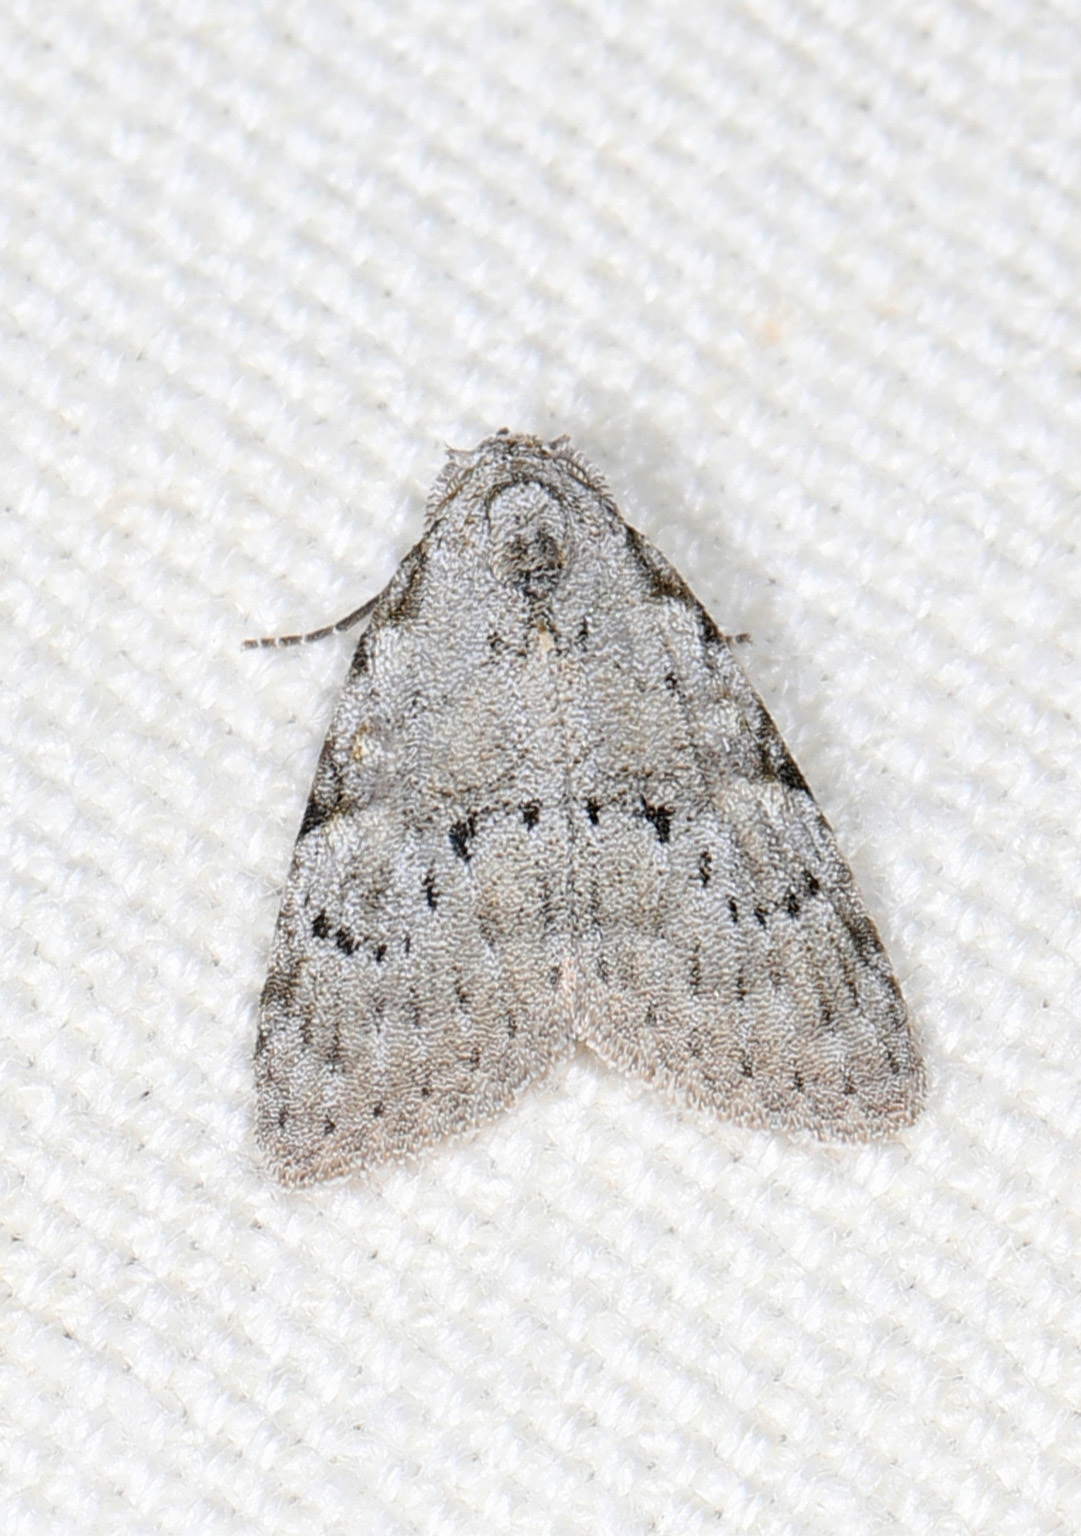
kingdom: Animalia
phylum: Arthropoda
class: Insecta
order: Lepidoptera
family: Nolidae
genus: Meganola
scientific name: Meganola minuscula
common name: Confused meganola moth
